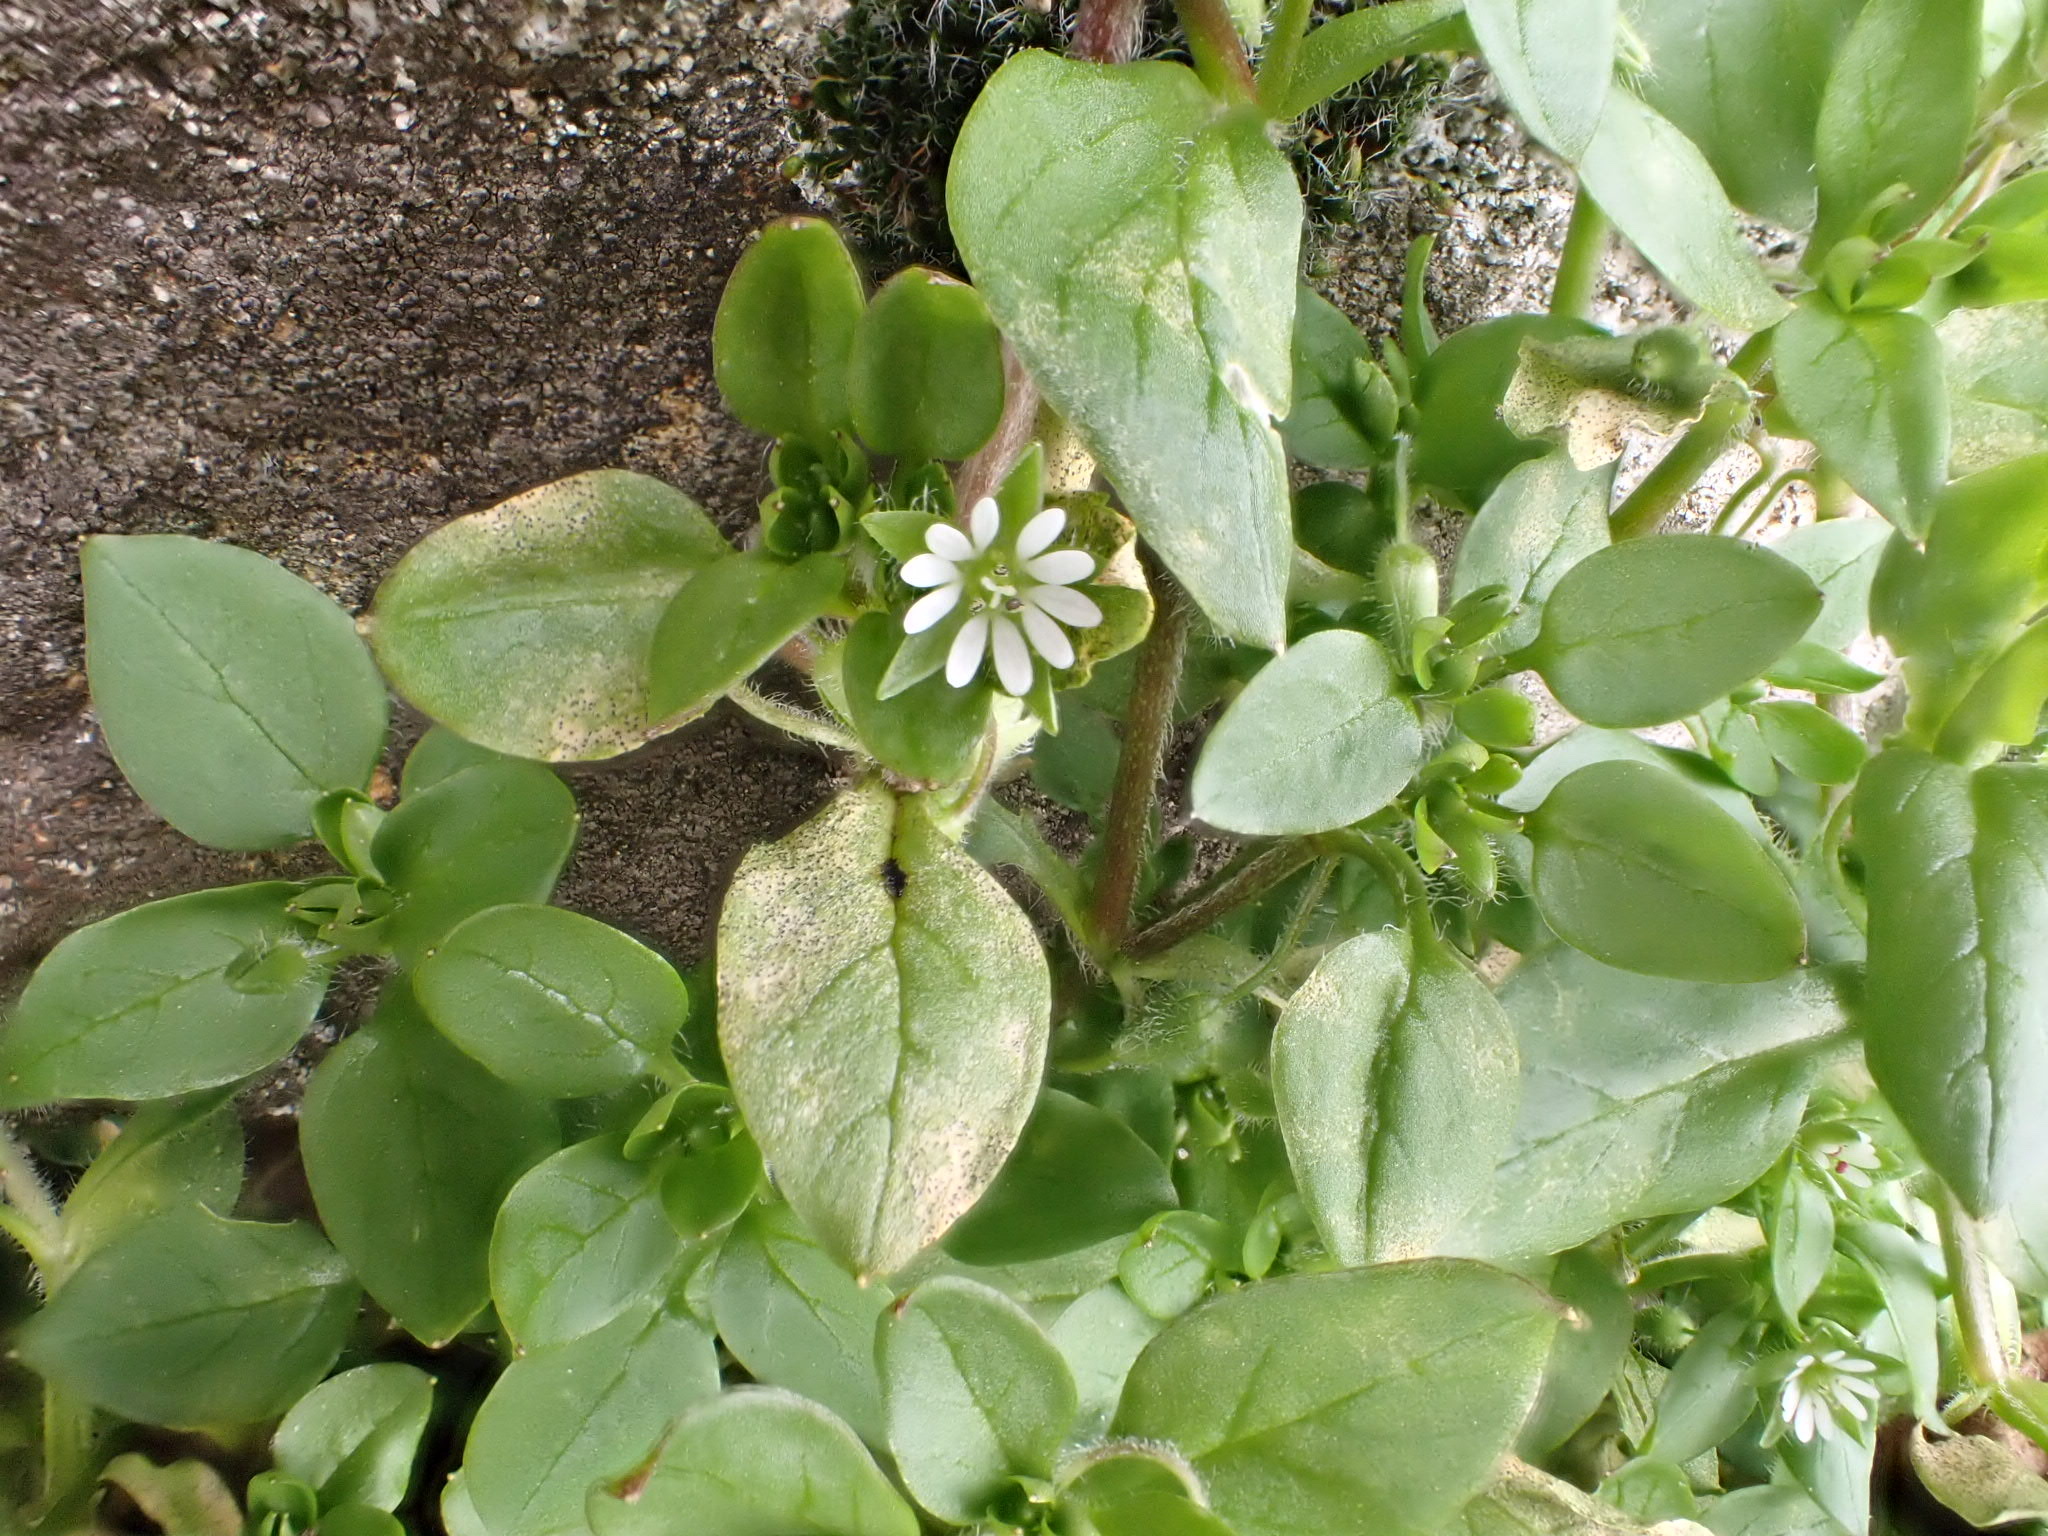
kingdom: Plantae
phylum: Tracheophyta
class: Magnoliopsida
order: Caryophyllales
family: Caryophyllaceae
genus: Stellaria
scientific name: Stellaria media
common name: Common chickweed
